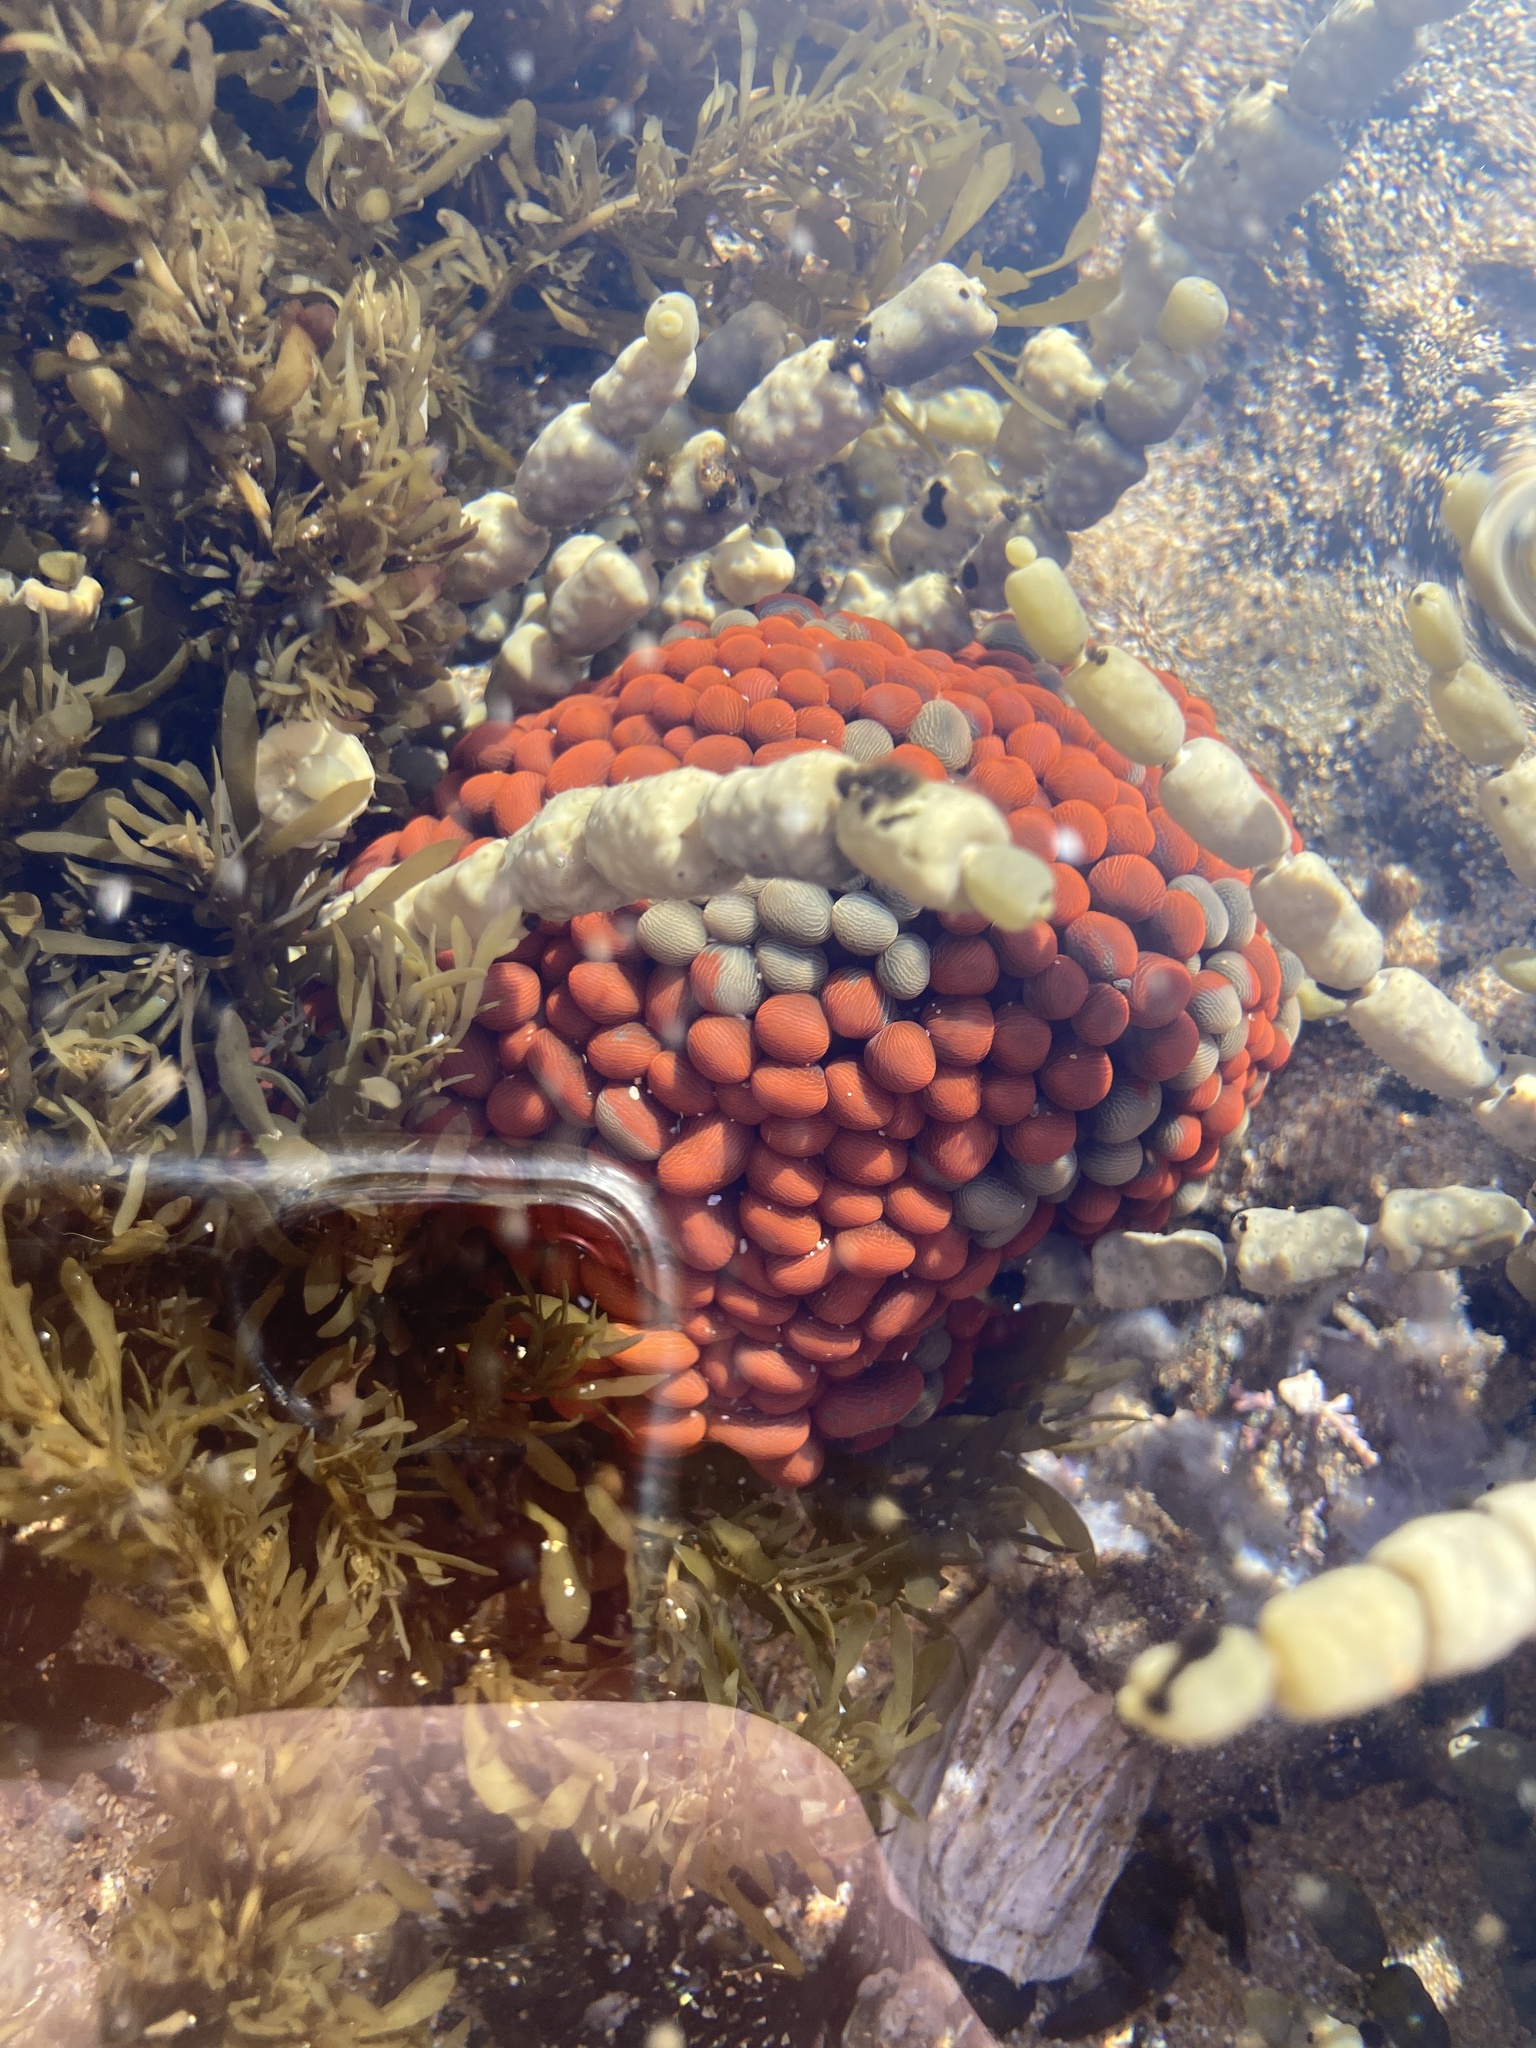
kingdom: Animalia
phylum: Cnidaria
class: Anthozoa
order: Actiniaria
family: Actiniidae
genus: Phlyctenactis
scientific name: Phlyctenactis tuberculosa
